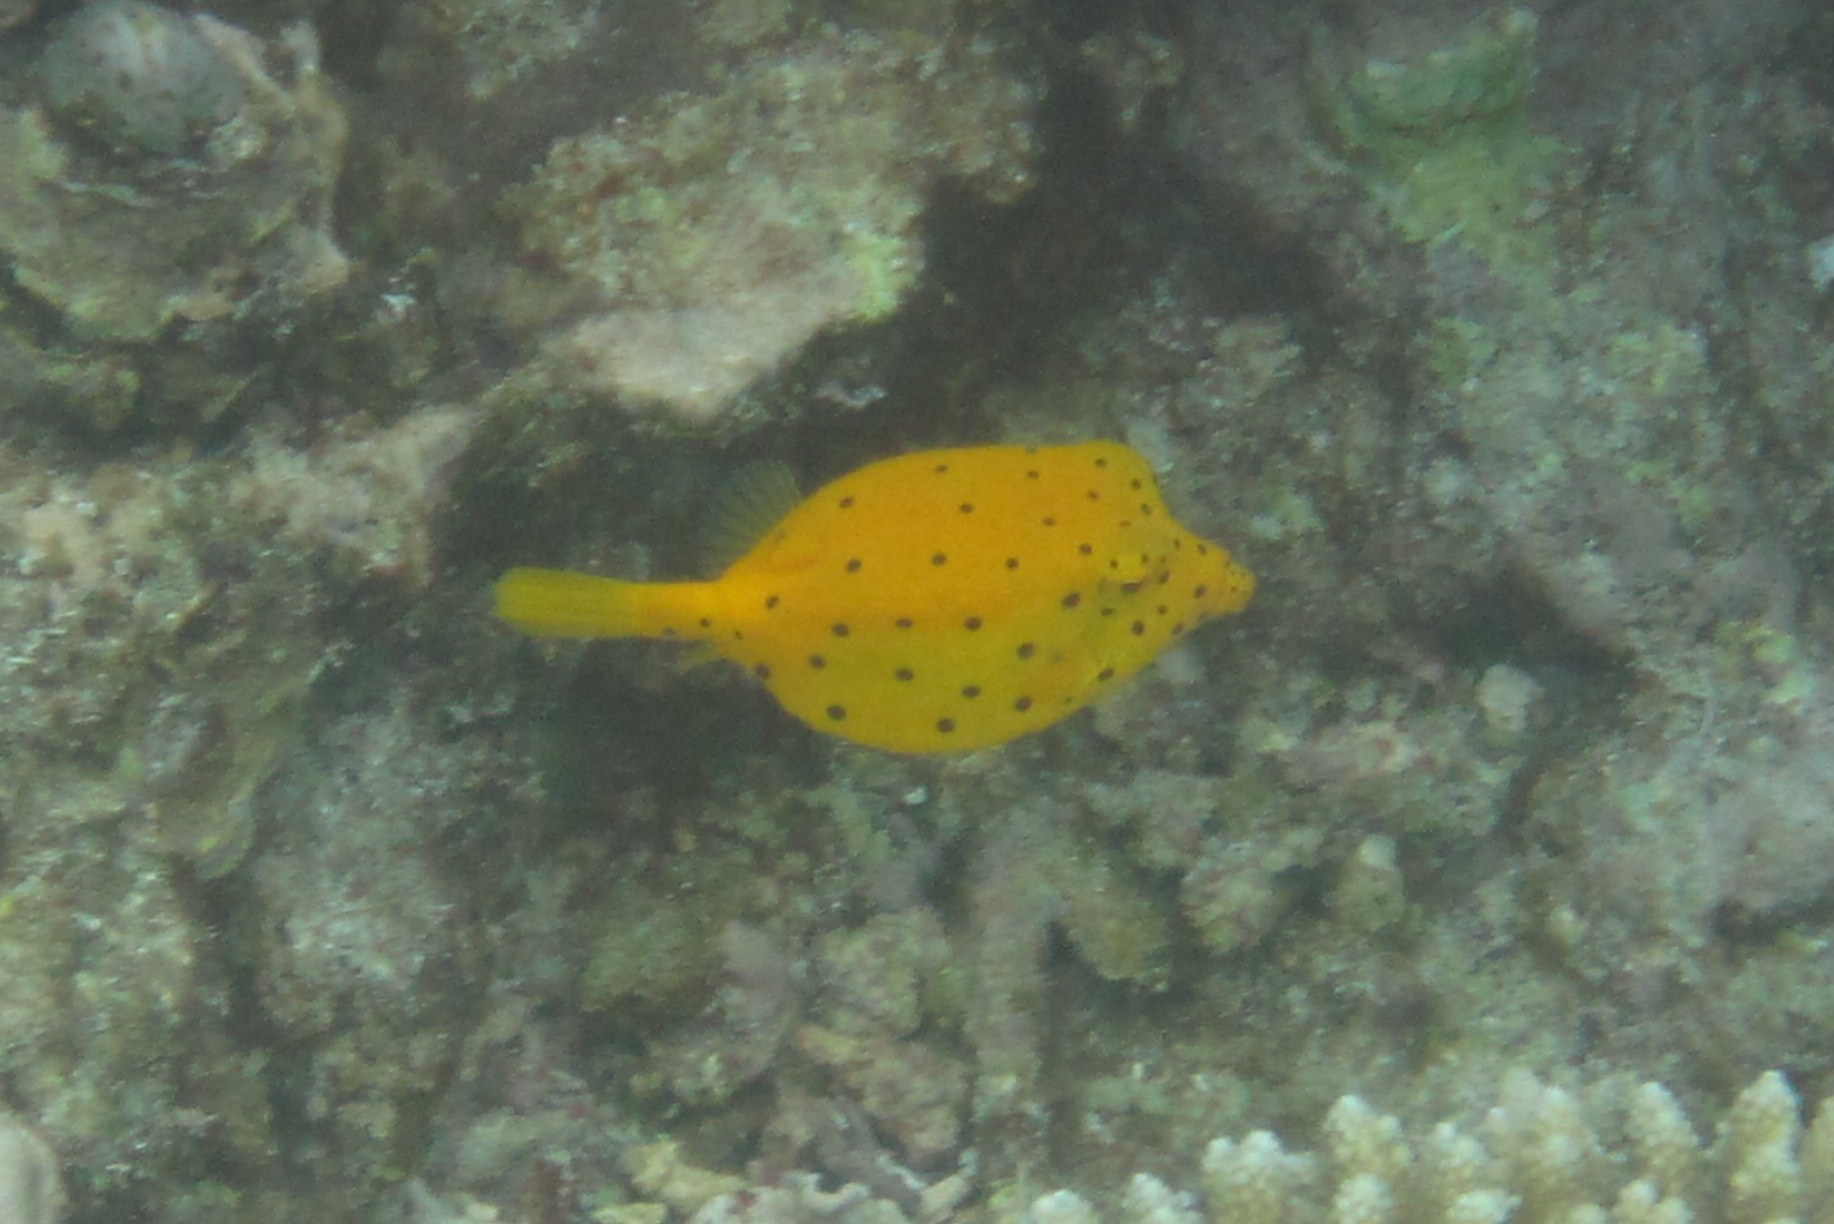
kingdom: Animalia
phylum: Chordata
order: Tetraodontiformes
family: Ostraciidae
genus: Ostracion
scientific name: Ostracion cubicus
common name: Cube trunkfish
